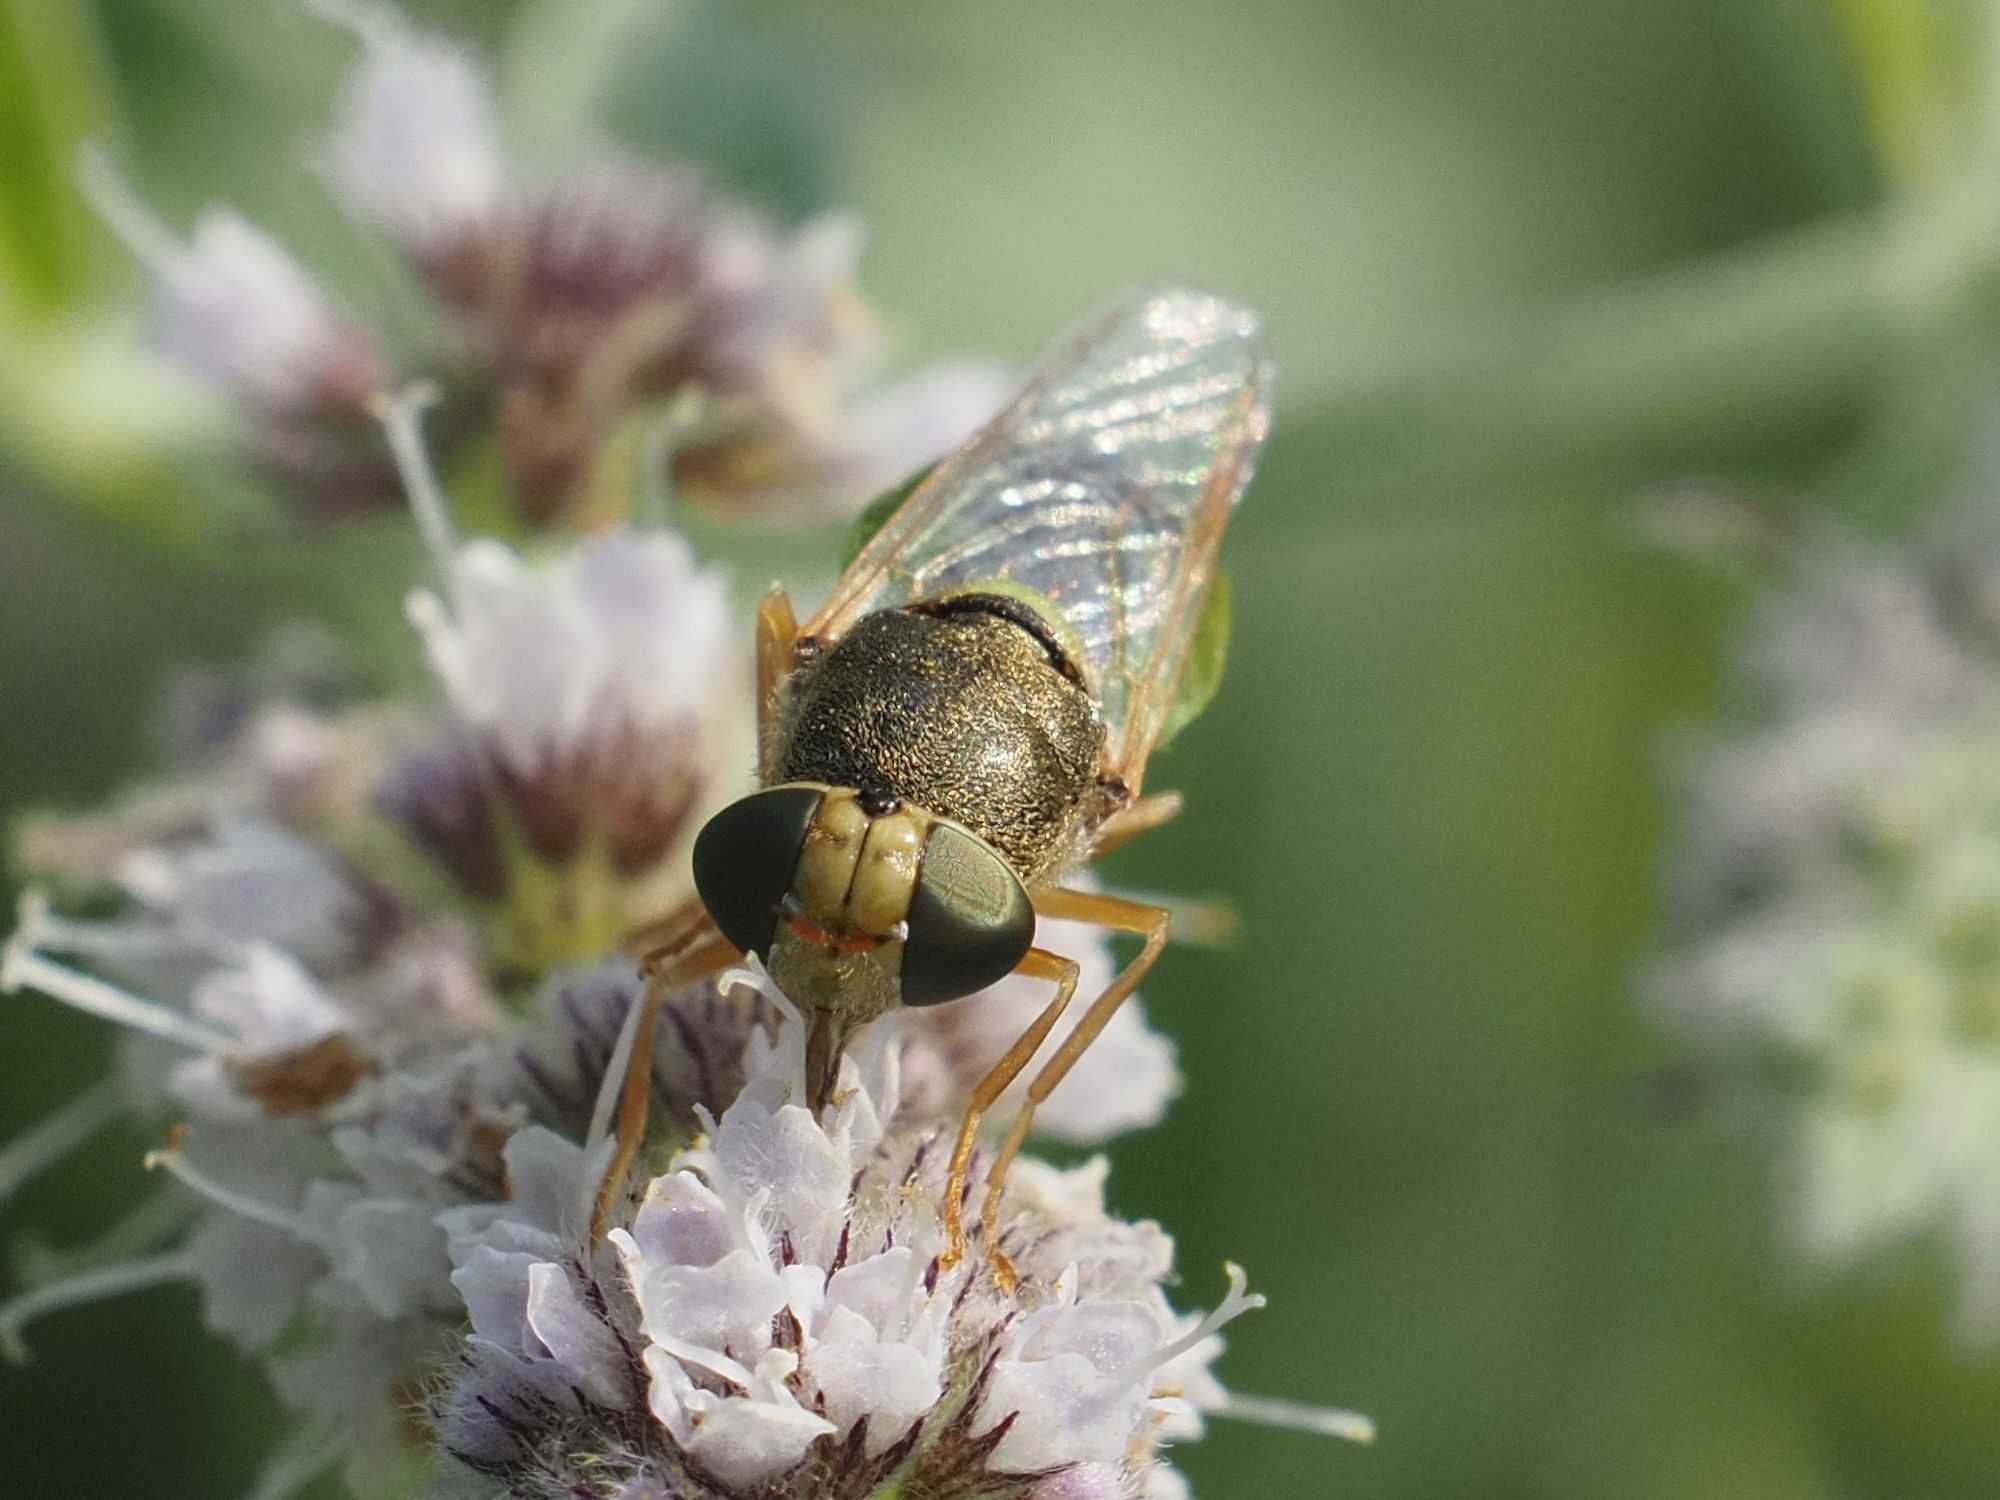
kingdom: Animalia
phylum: Arthropoda
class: Insecta
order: Diptera
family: Stratiomyidae
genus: Odontomyia
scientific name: Odontomyia angulata
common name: Orange-horned green colonel
